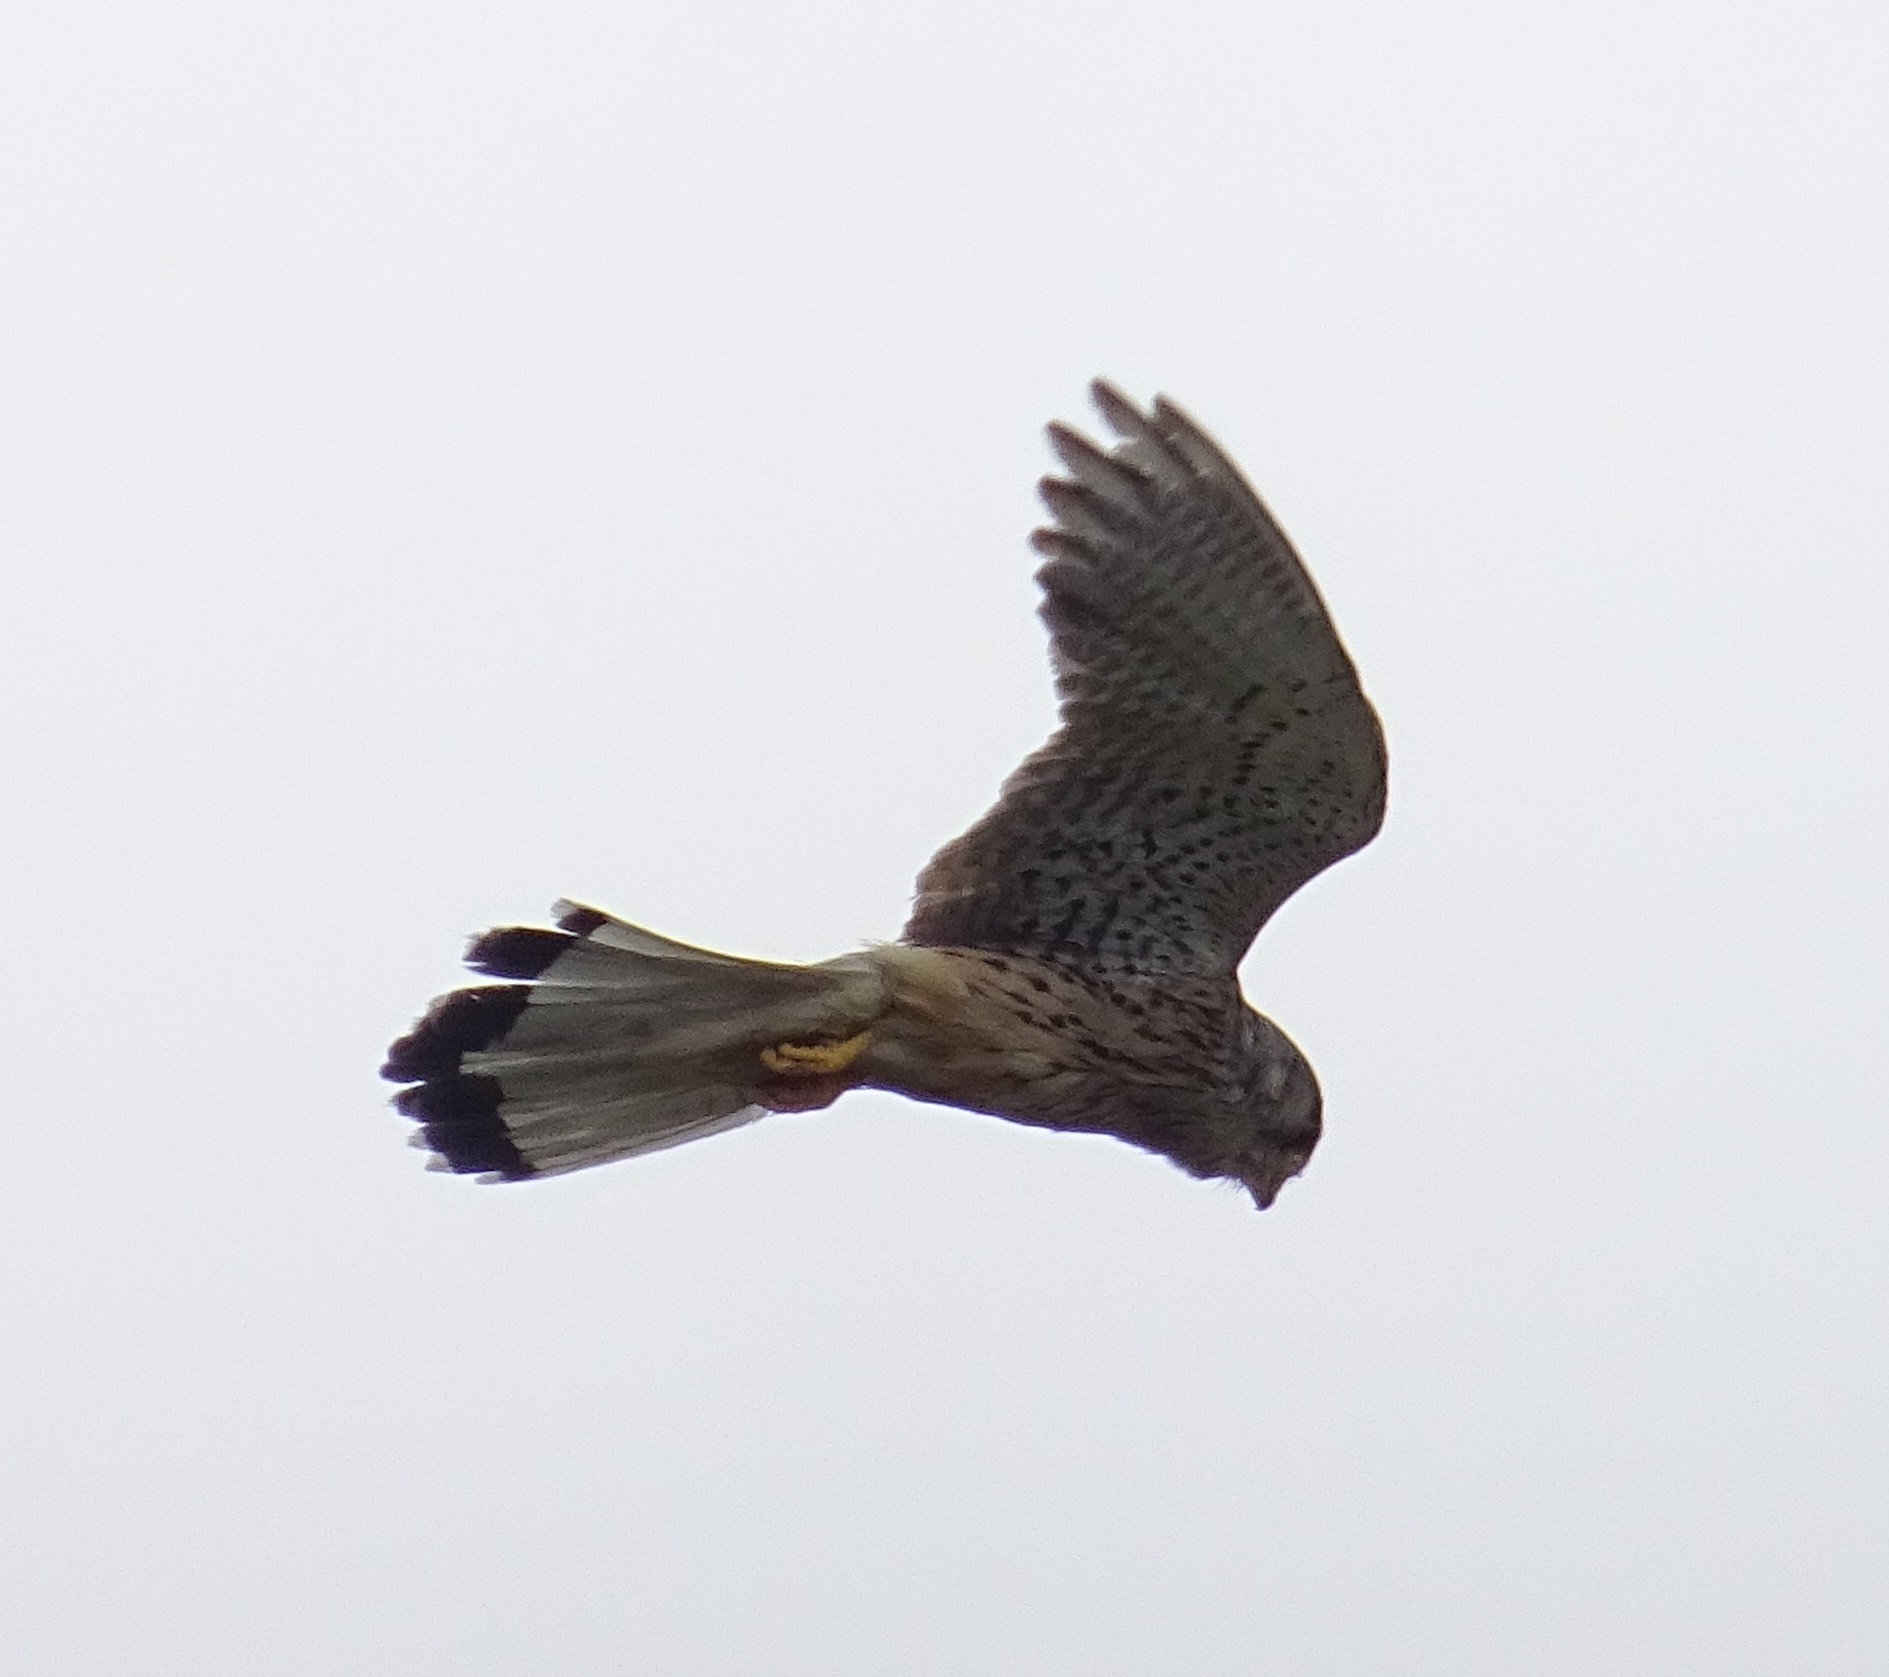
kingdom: Animalia
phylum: Chordata
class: Aves
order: Falconiformes
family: Falconidae
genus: Falco
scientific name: Falco tinnunculus
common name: Common kestrel
